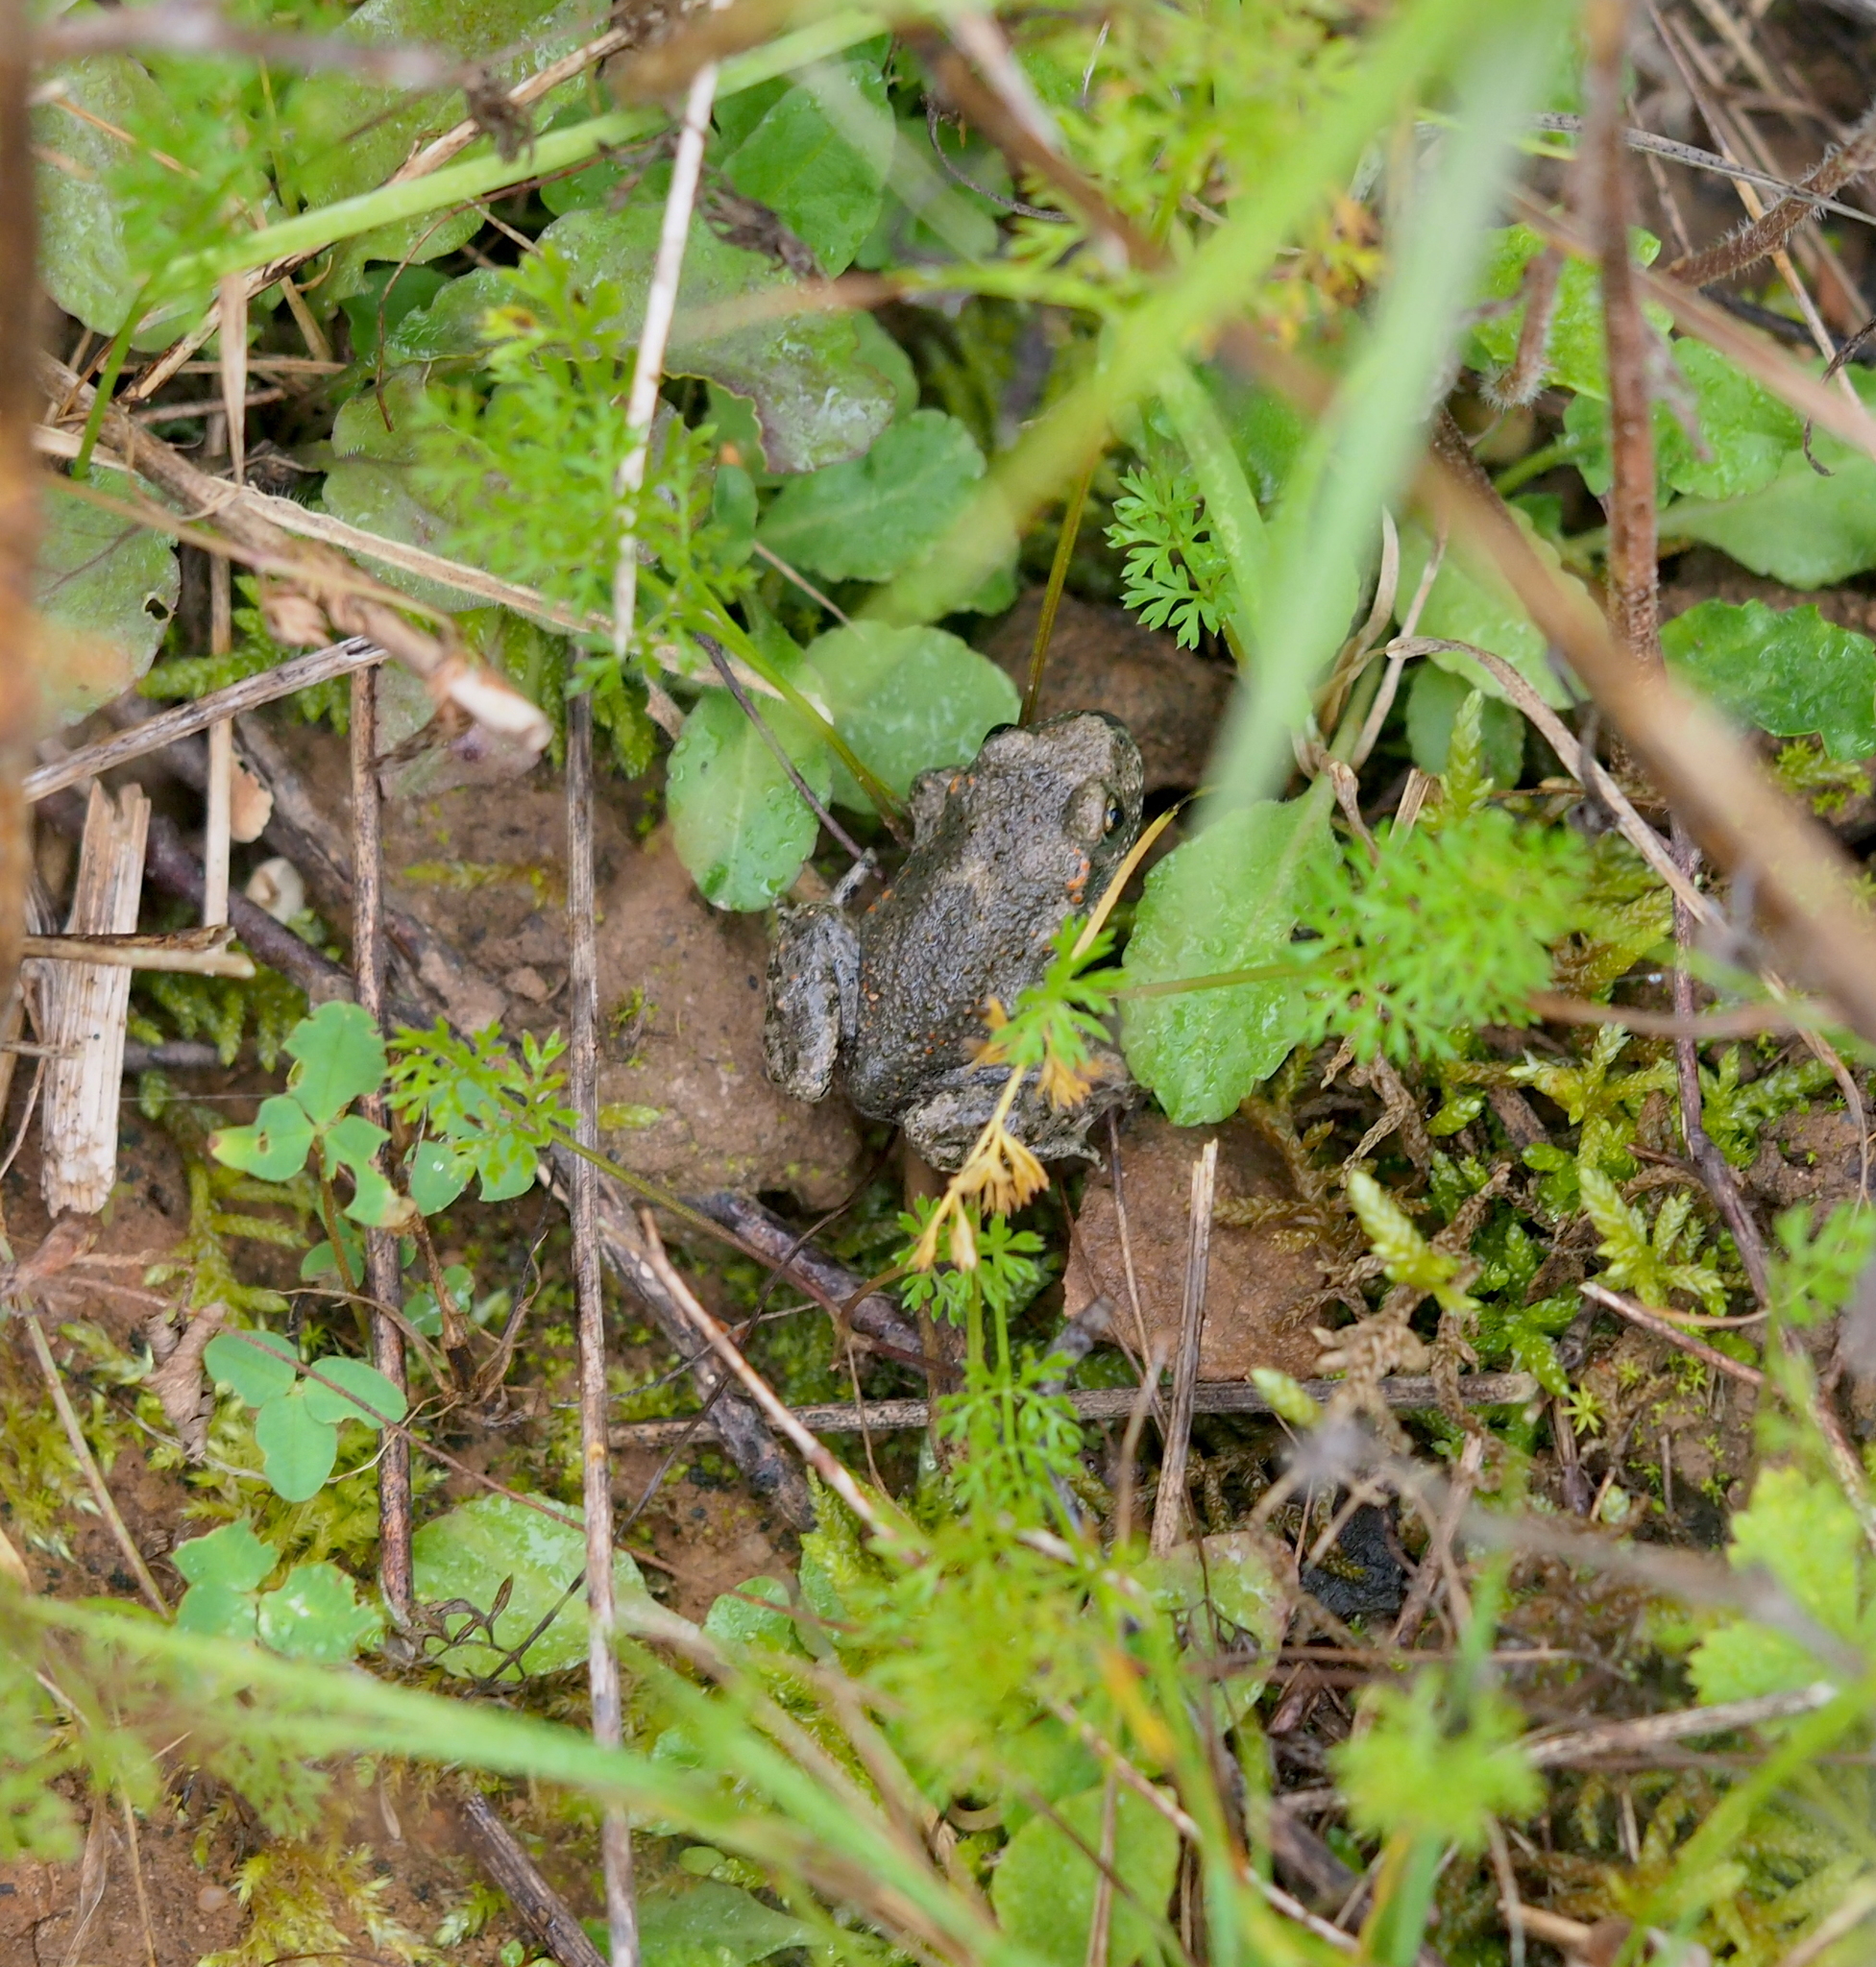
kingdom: Animalia
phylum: Chordata
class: Amphibia
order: Anura
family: Alytidae
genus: Alytes
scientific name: Alytes obstetricans
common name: Midwife toad
